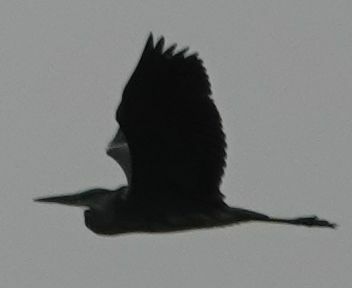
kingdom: Animalia
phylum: Chordata
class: Aves
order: Pelecaniformes
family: Ardeidae
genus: Ardea
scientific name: Ardea cinerea
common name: Grey heron
